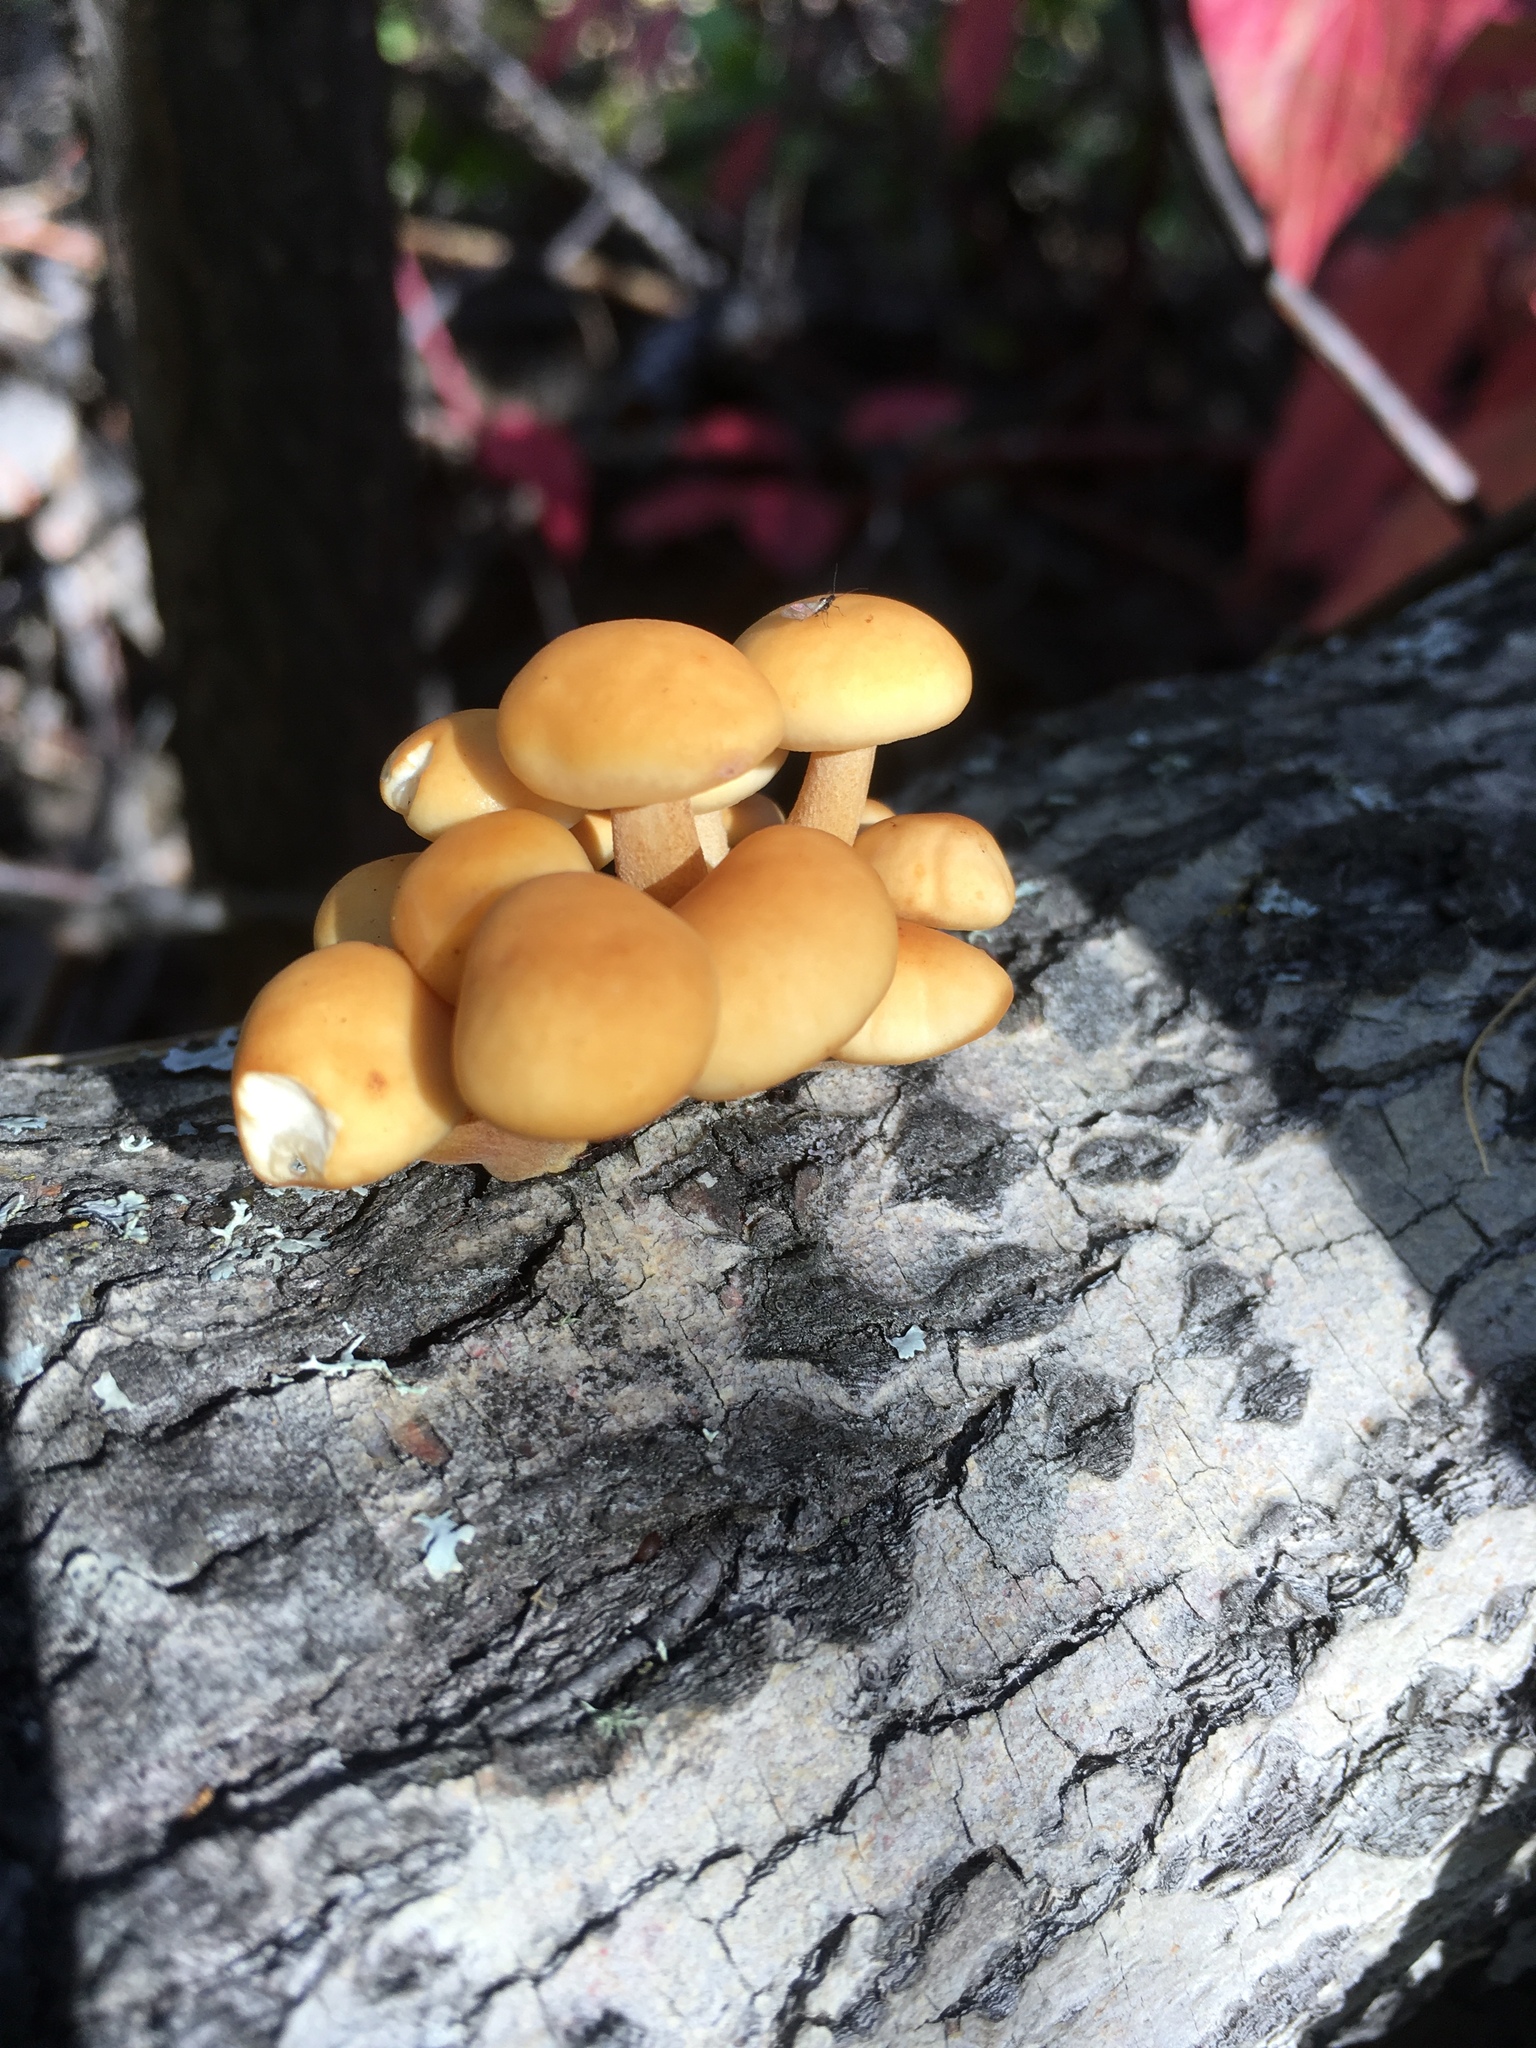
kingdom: Fungi
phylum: Basidiomycota
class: Agaricomycetes
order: Agaricales
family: Physalacriaceae
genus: Flammulina
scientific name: Flammulina velutipes
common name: Velvet shank
